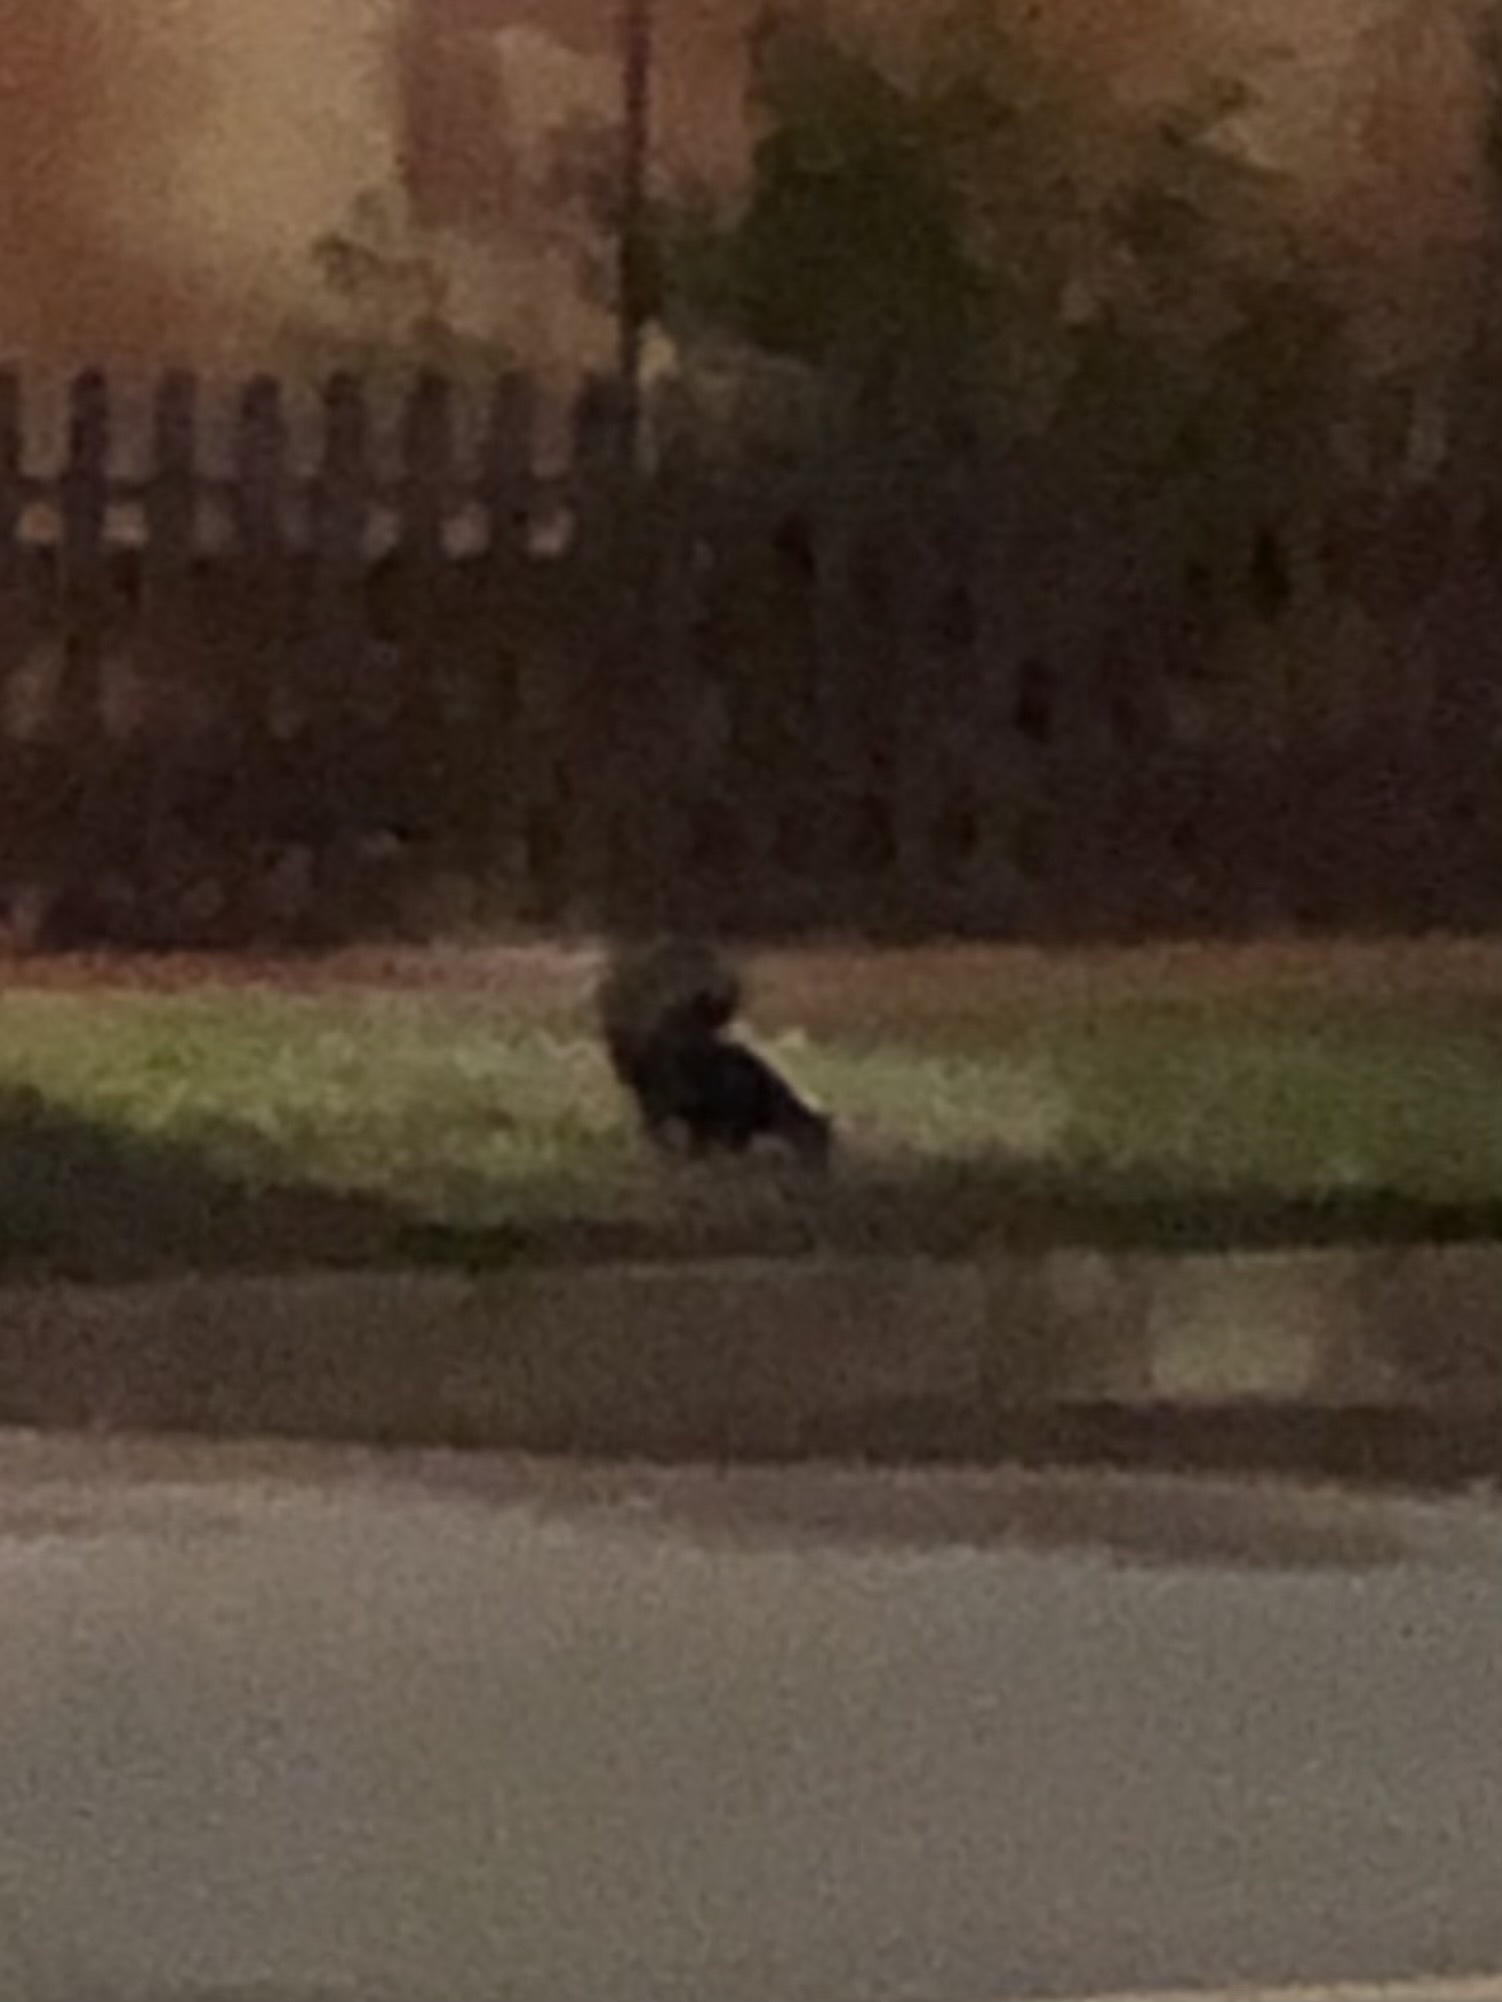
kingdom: Animalia
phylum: Chordata
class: Mammalia
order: Carnivora
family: Mephitidae
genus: Mephitis
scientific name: Mephitis mephitis
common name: Striped skunk
